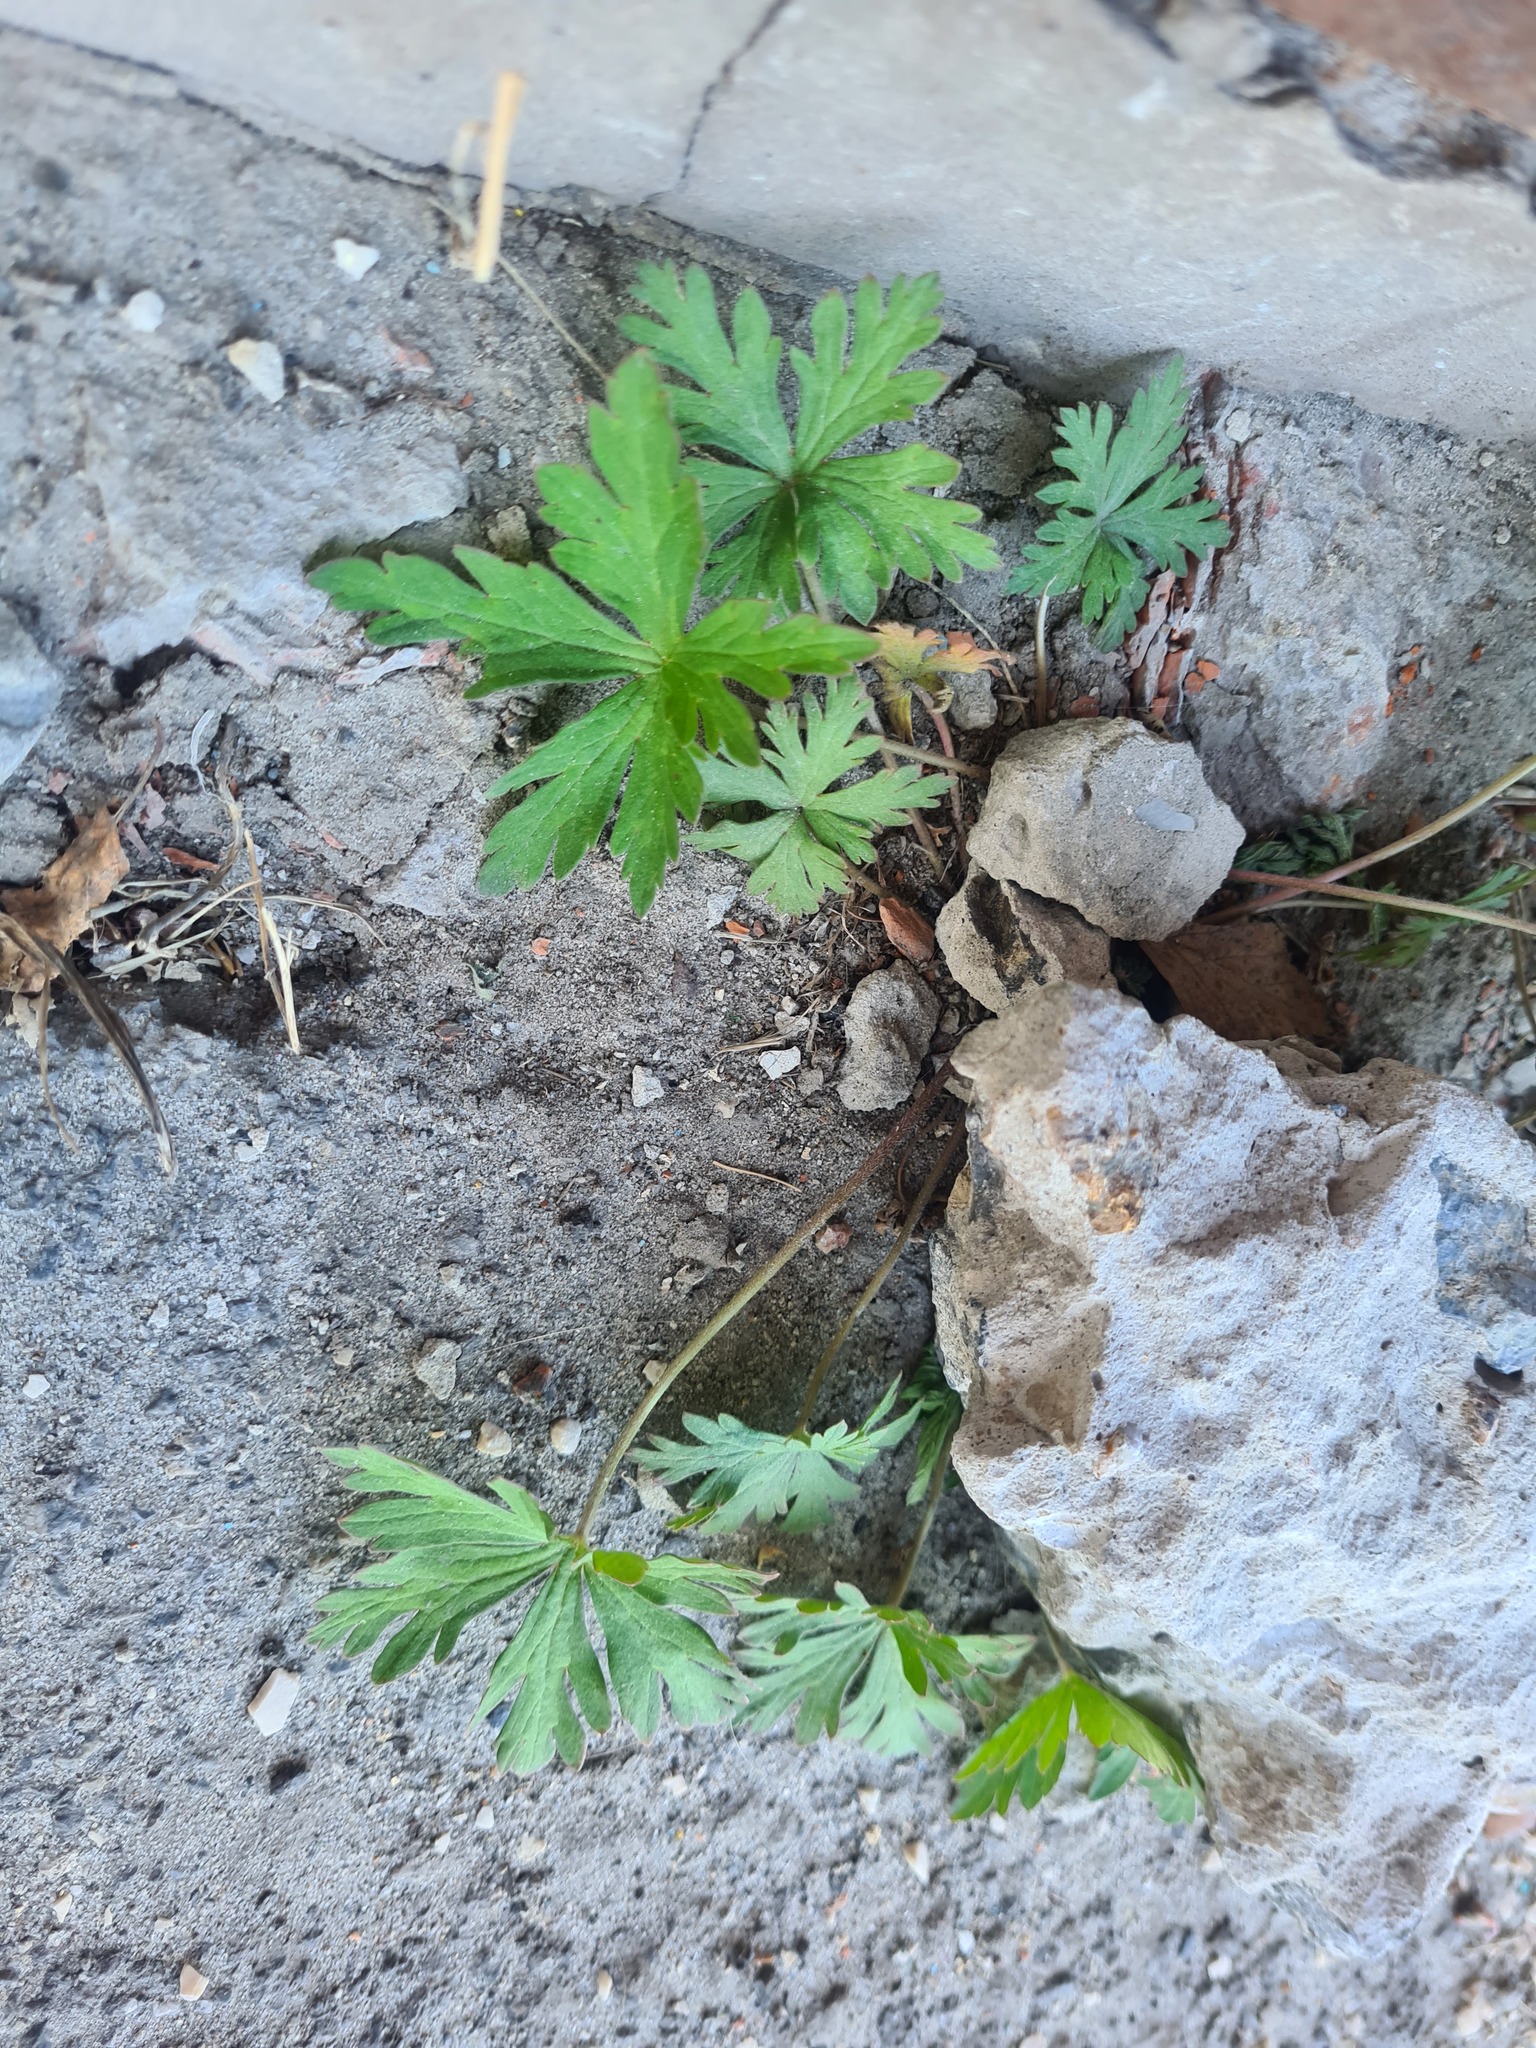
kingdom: Plantae
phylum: Tracheophyta
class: Magnoliopsida
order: Geraniales
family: Geraniaceae
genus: Geranium
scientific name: Geranium sibiricum
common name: Siberian crane's-bill
